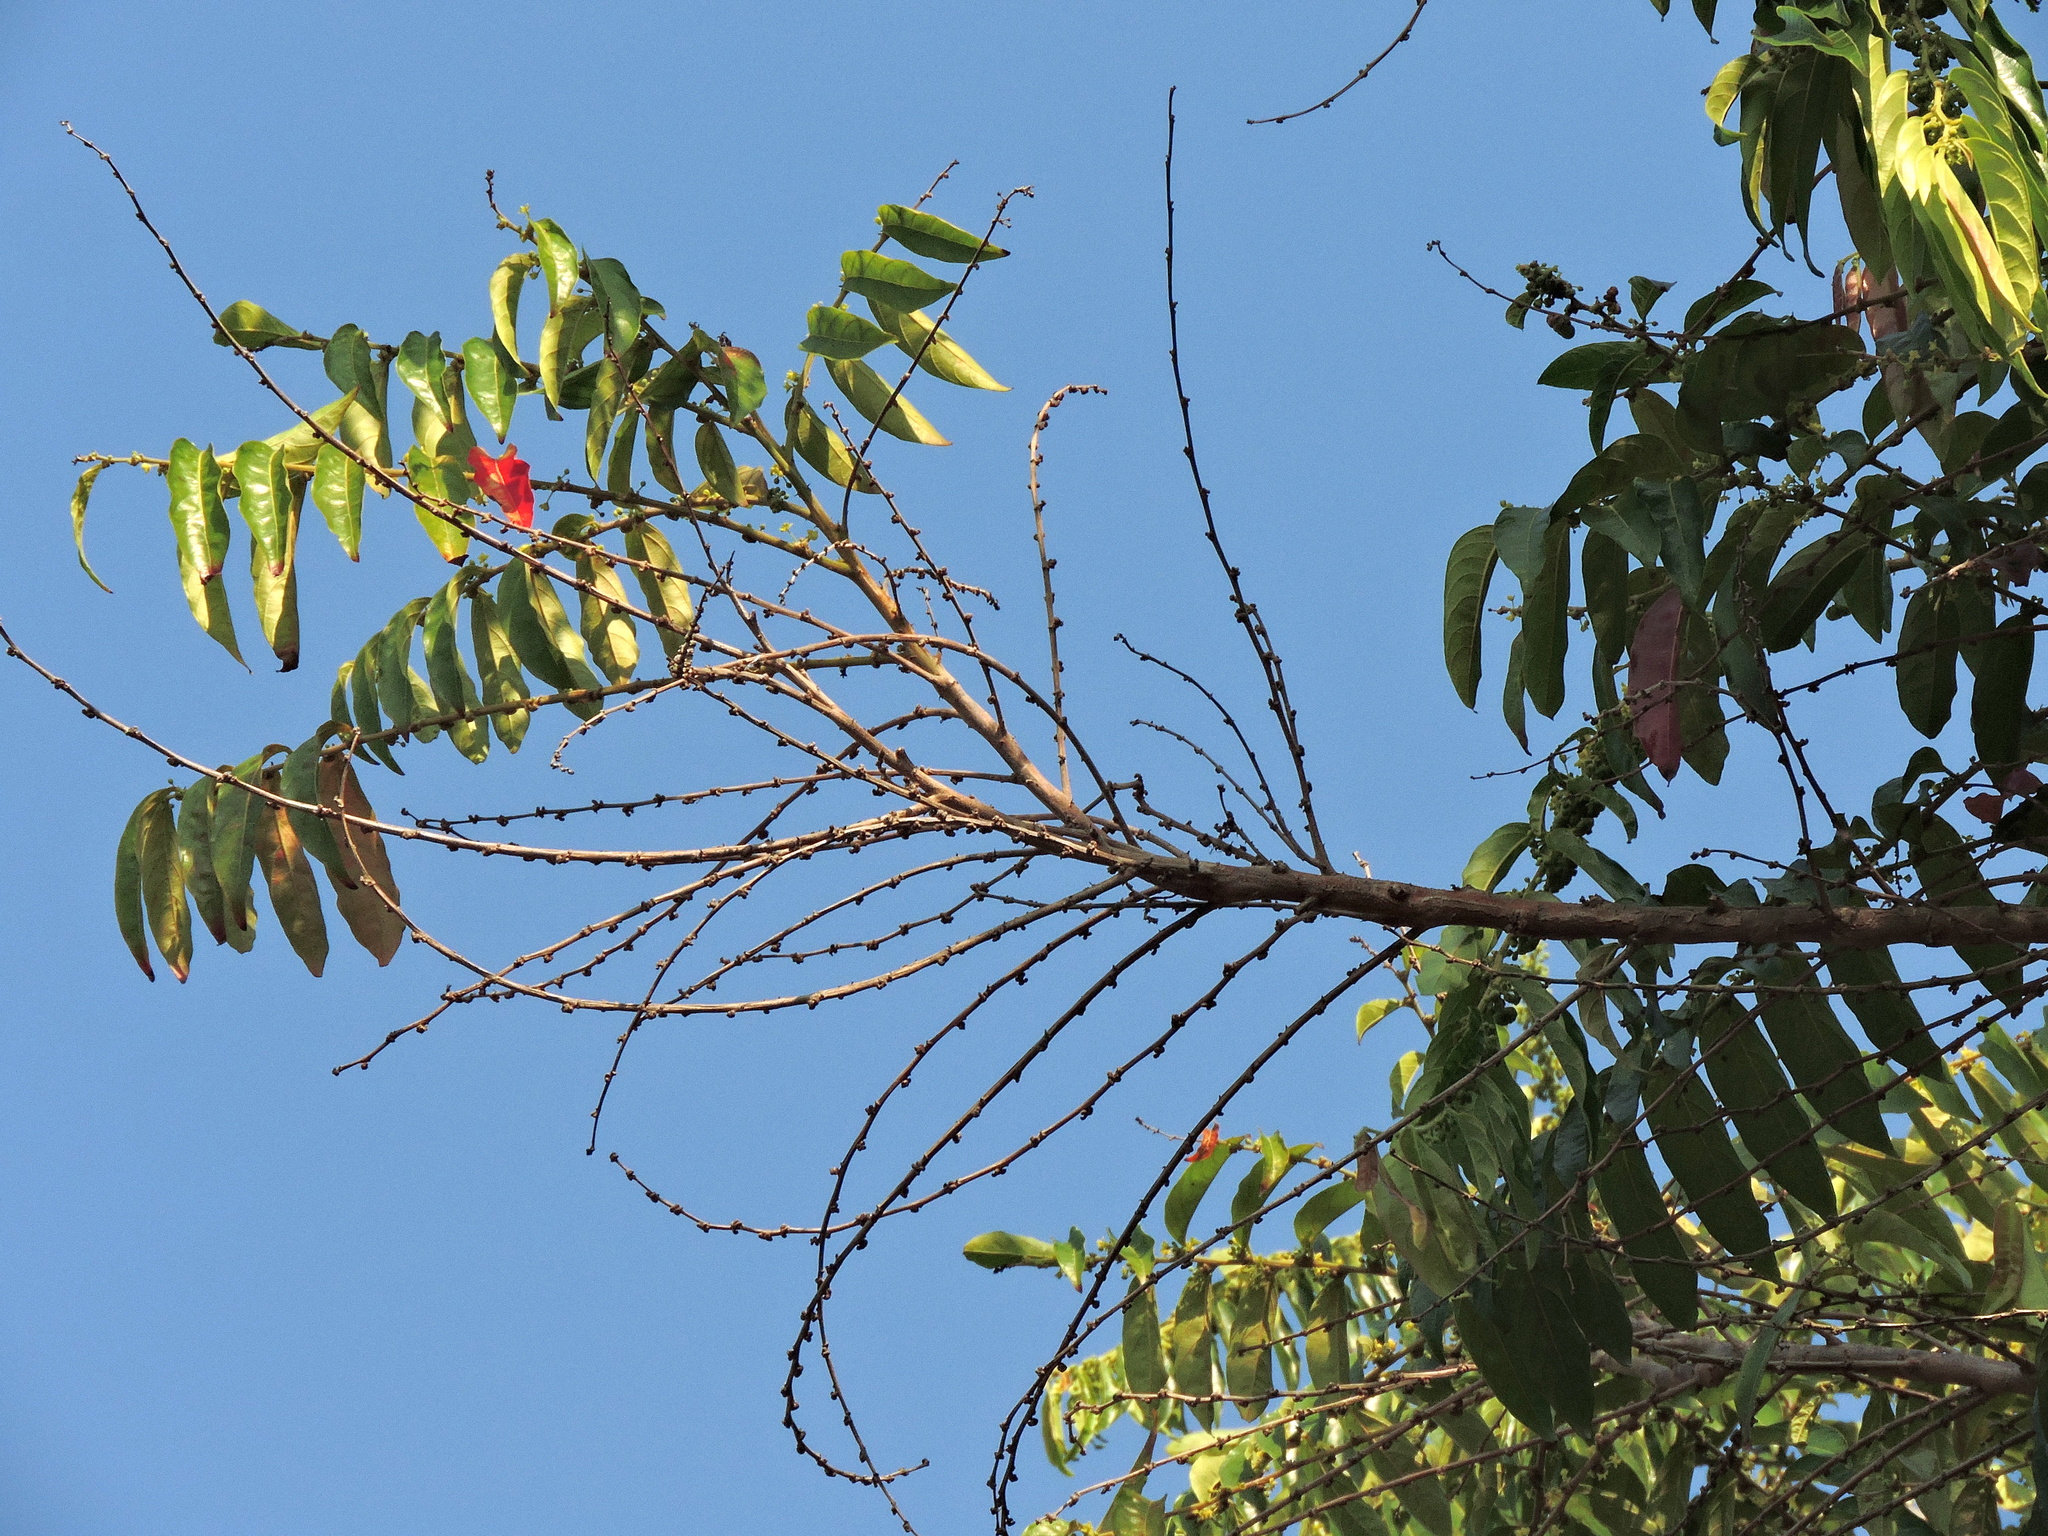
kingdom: Plantae
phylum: Tracheophyta
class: Magnoliopsida
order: Malpighiales
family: Phyllanthaceae
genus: Glochidion
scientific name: Glochidion philippicum
